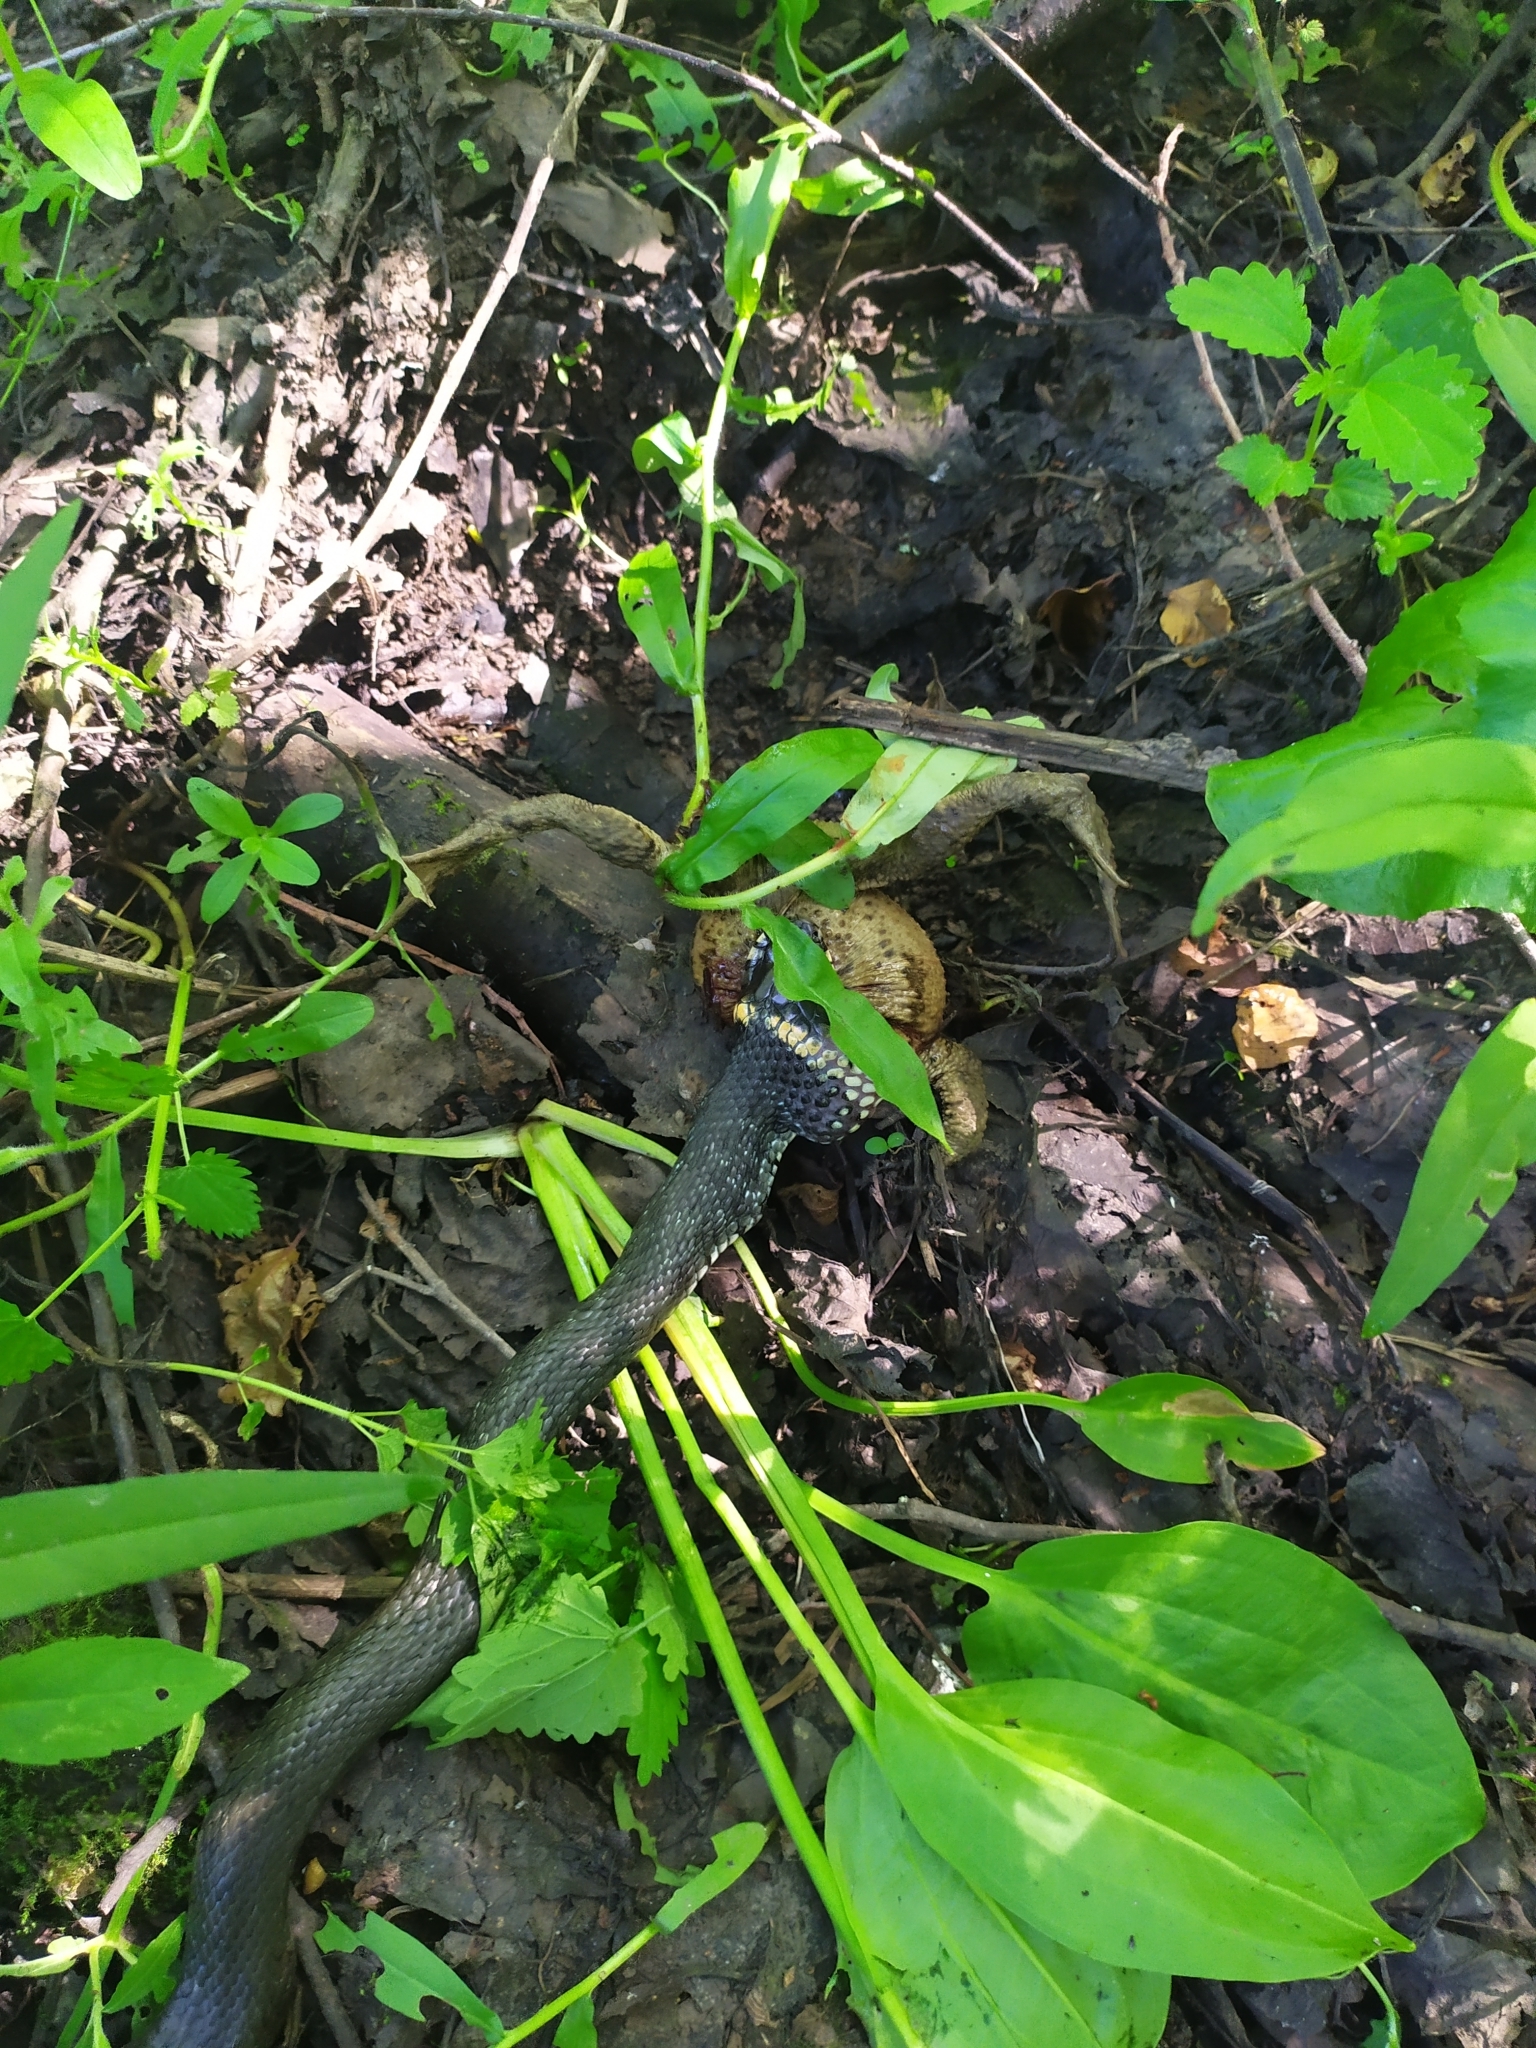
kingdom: Animalia
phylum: Chordata
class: Squamata
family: Colubridae
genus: Natrix
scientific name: Natrix natrix
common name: Grass snake
